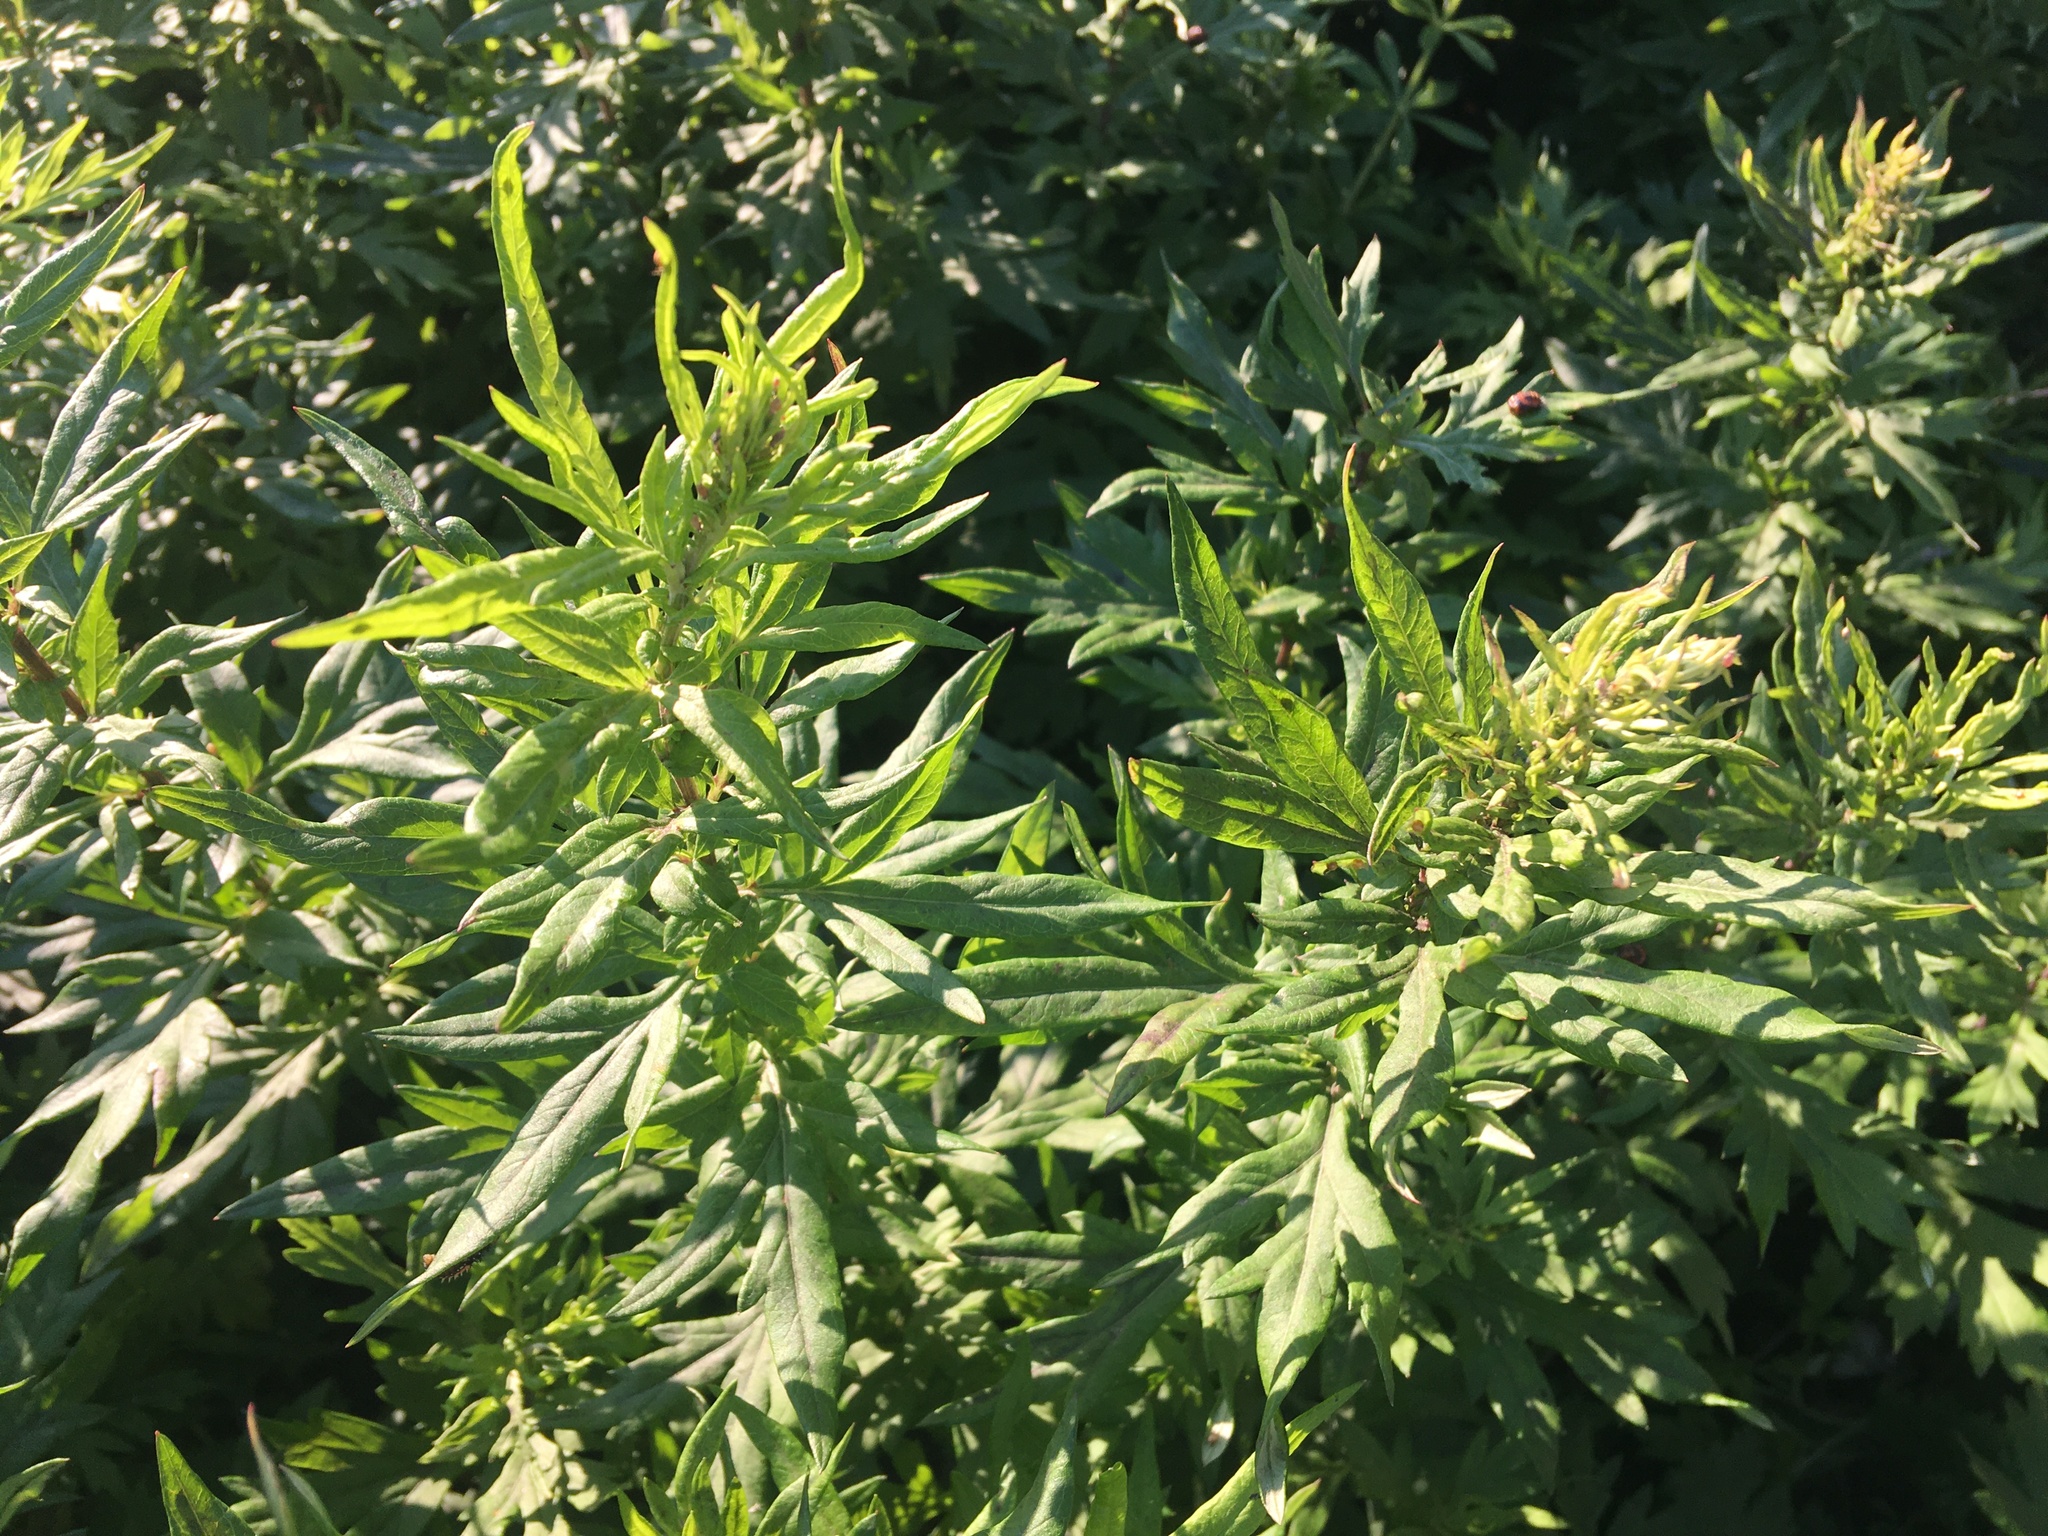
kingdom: Plantae
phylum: Tracheophyta
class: Magnoliopsida
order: Asterales
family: Asteraceae
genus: Artemisia
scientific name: Artemisia vulgaris
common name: Mugwort
